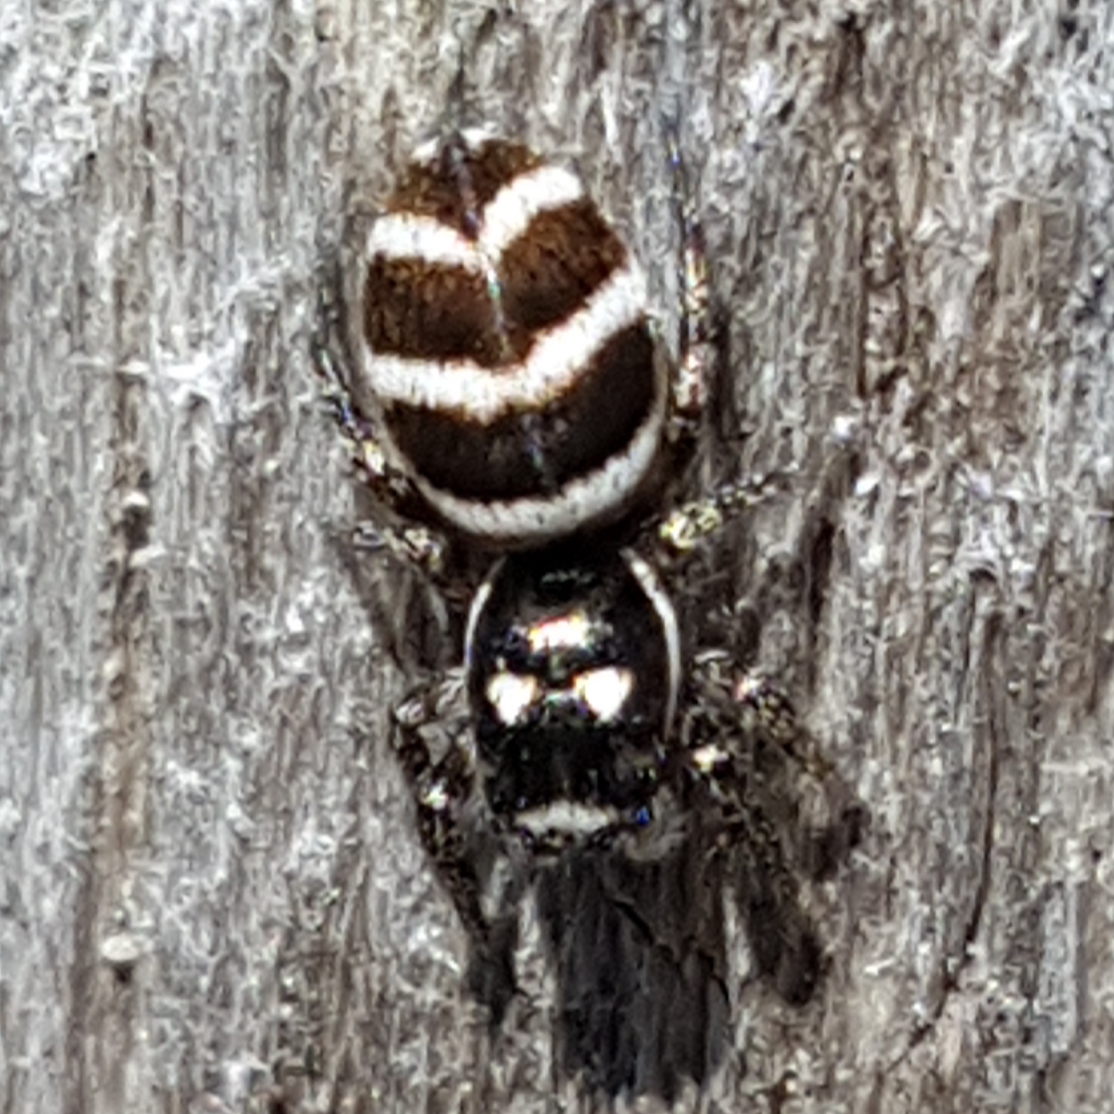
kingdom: Animalia
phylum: Arthropoda
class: Arachnida
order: Araneae
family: Salticidae
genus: Salticus
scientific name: Salticus propinquus
